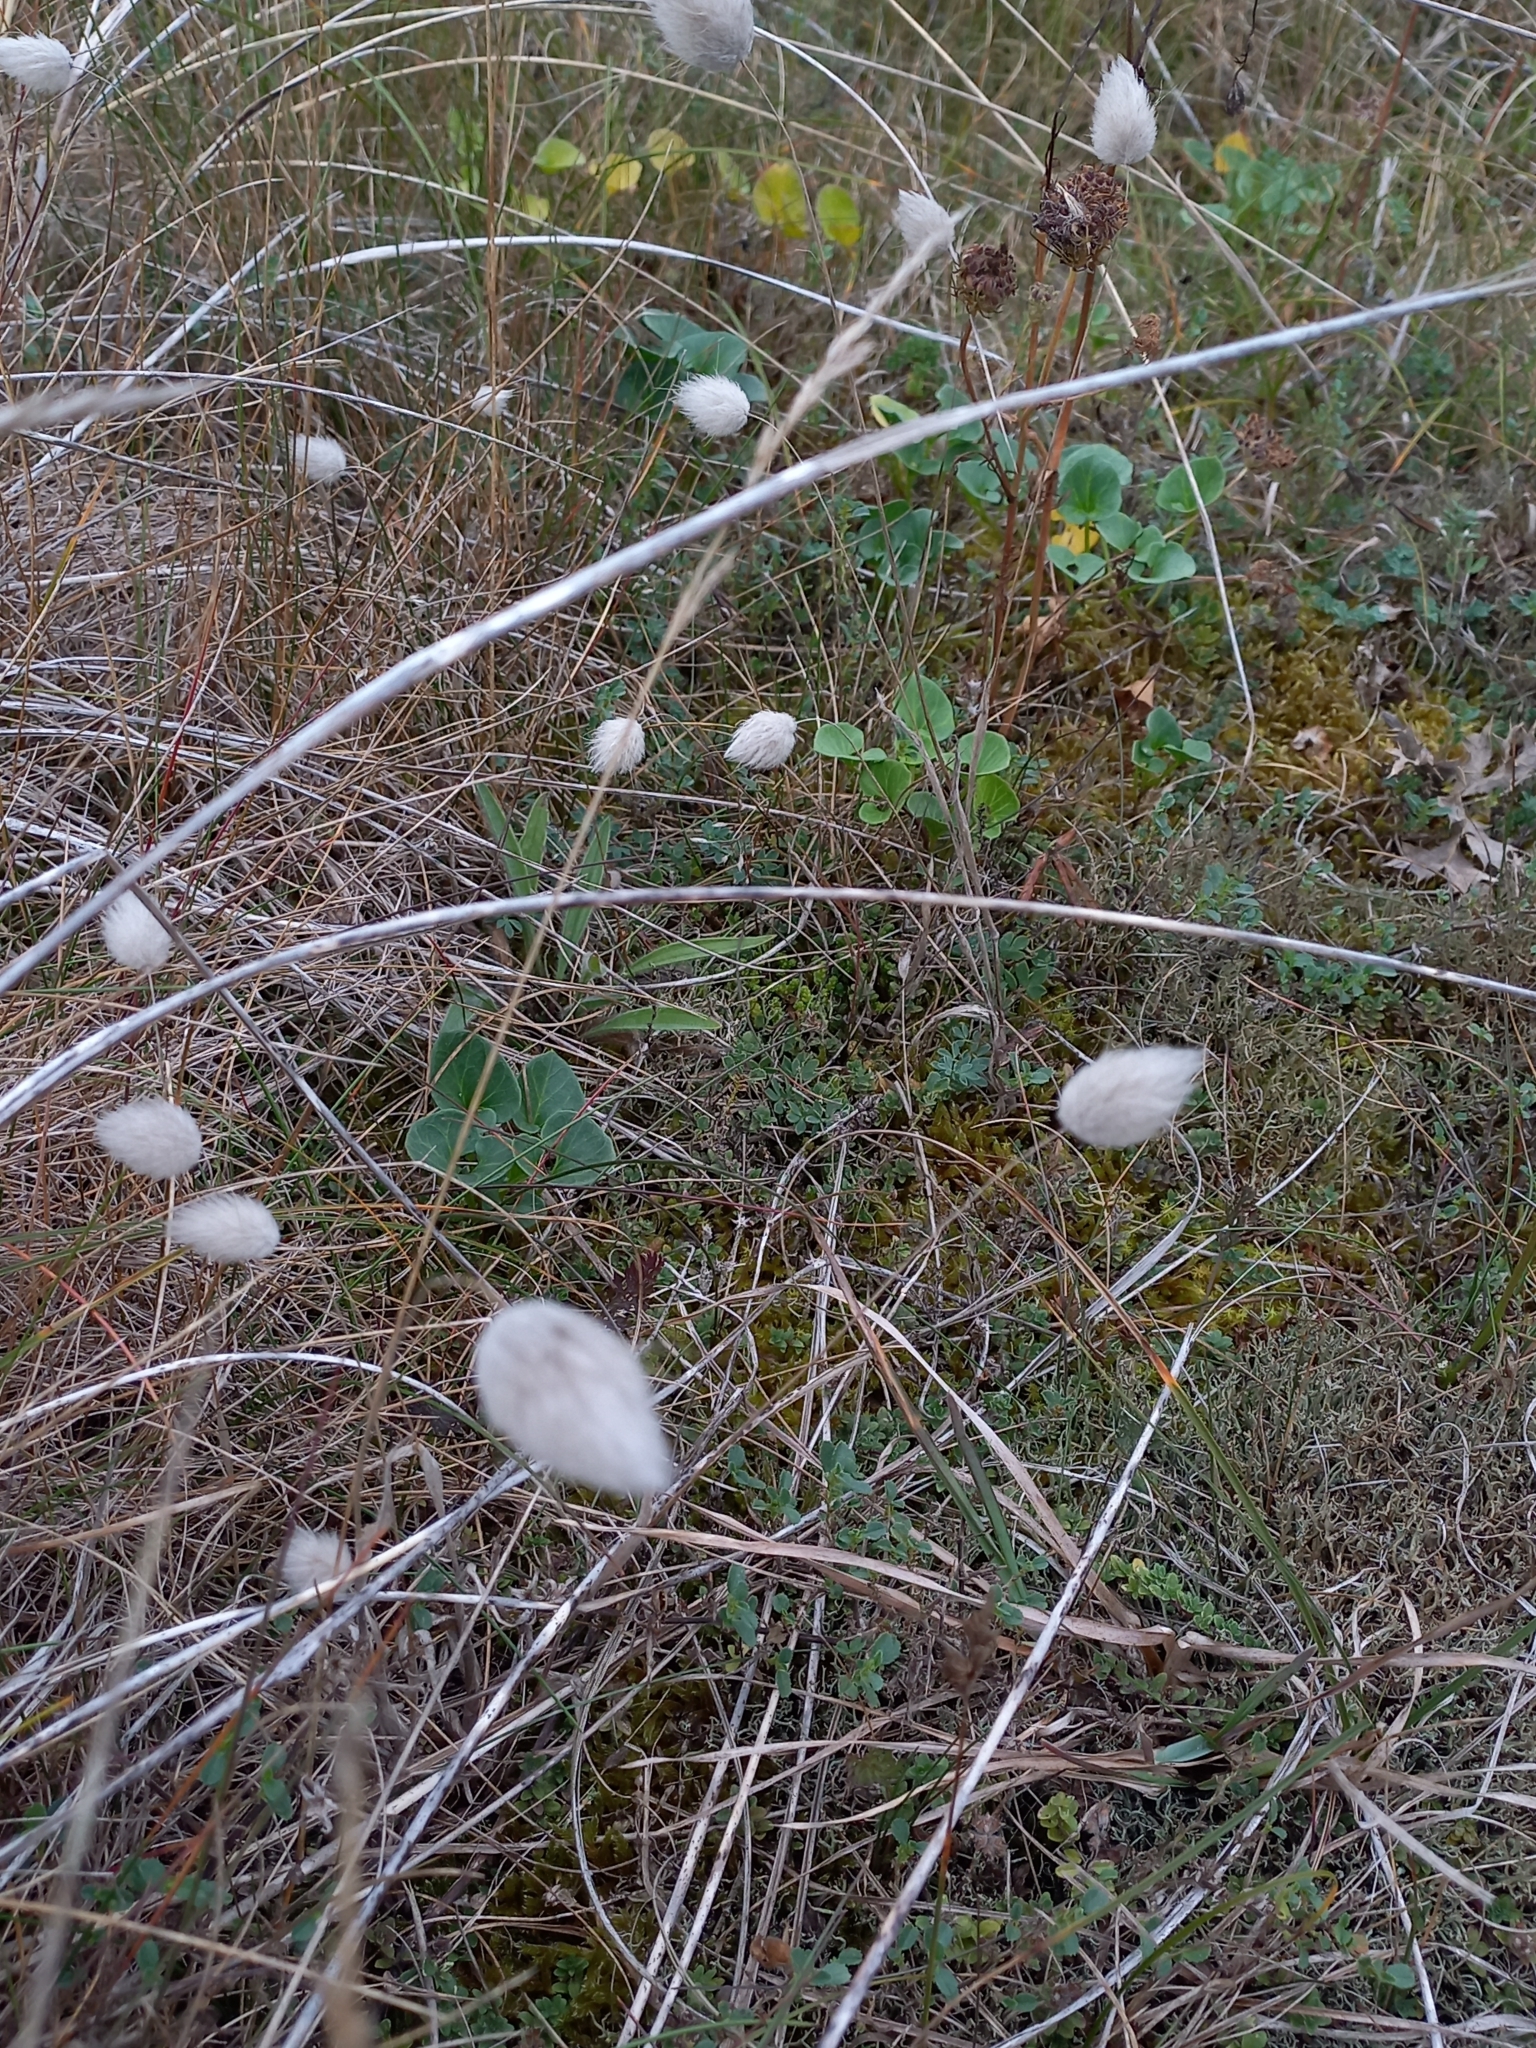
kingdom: Plantae
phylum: Tracheophyta
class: Liliopsida
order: Poales
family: Poaceae
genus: Lagurus
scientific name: Lagurus ovatus
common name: Hare's-tail
